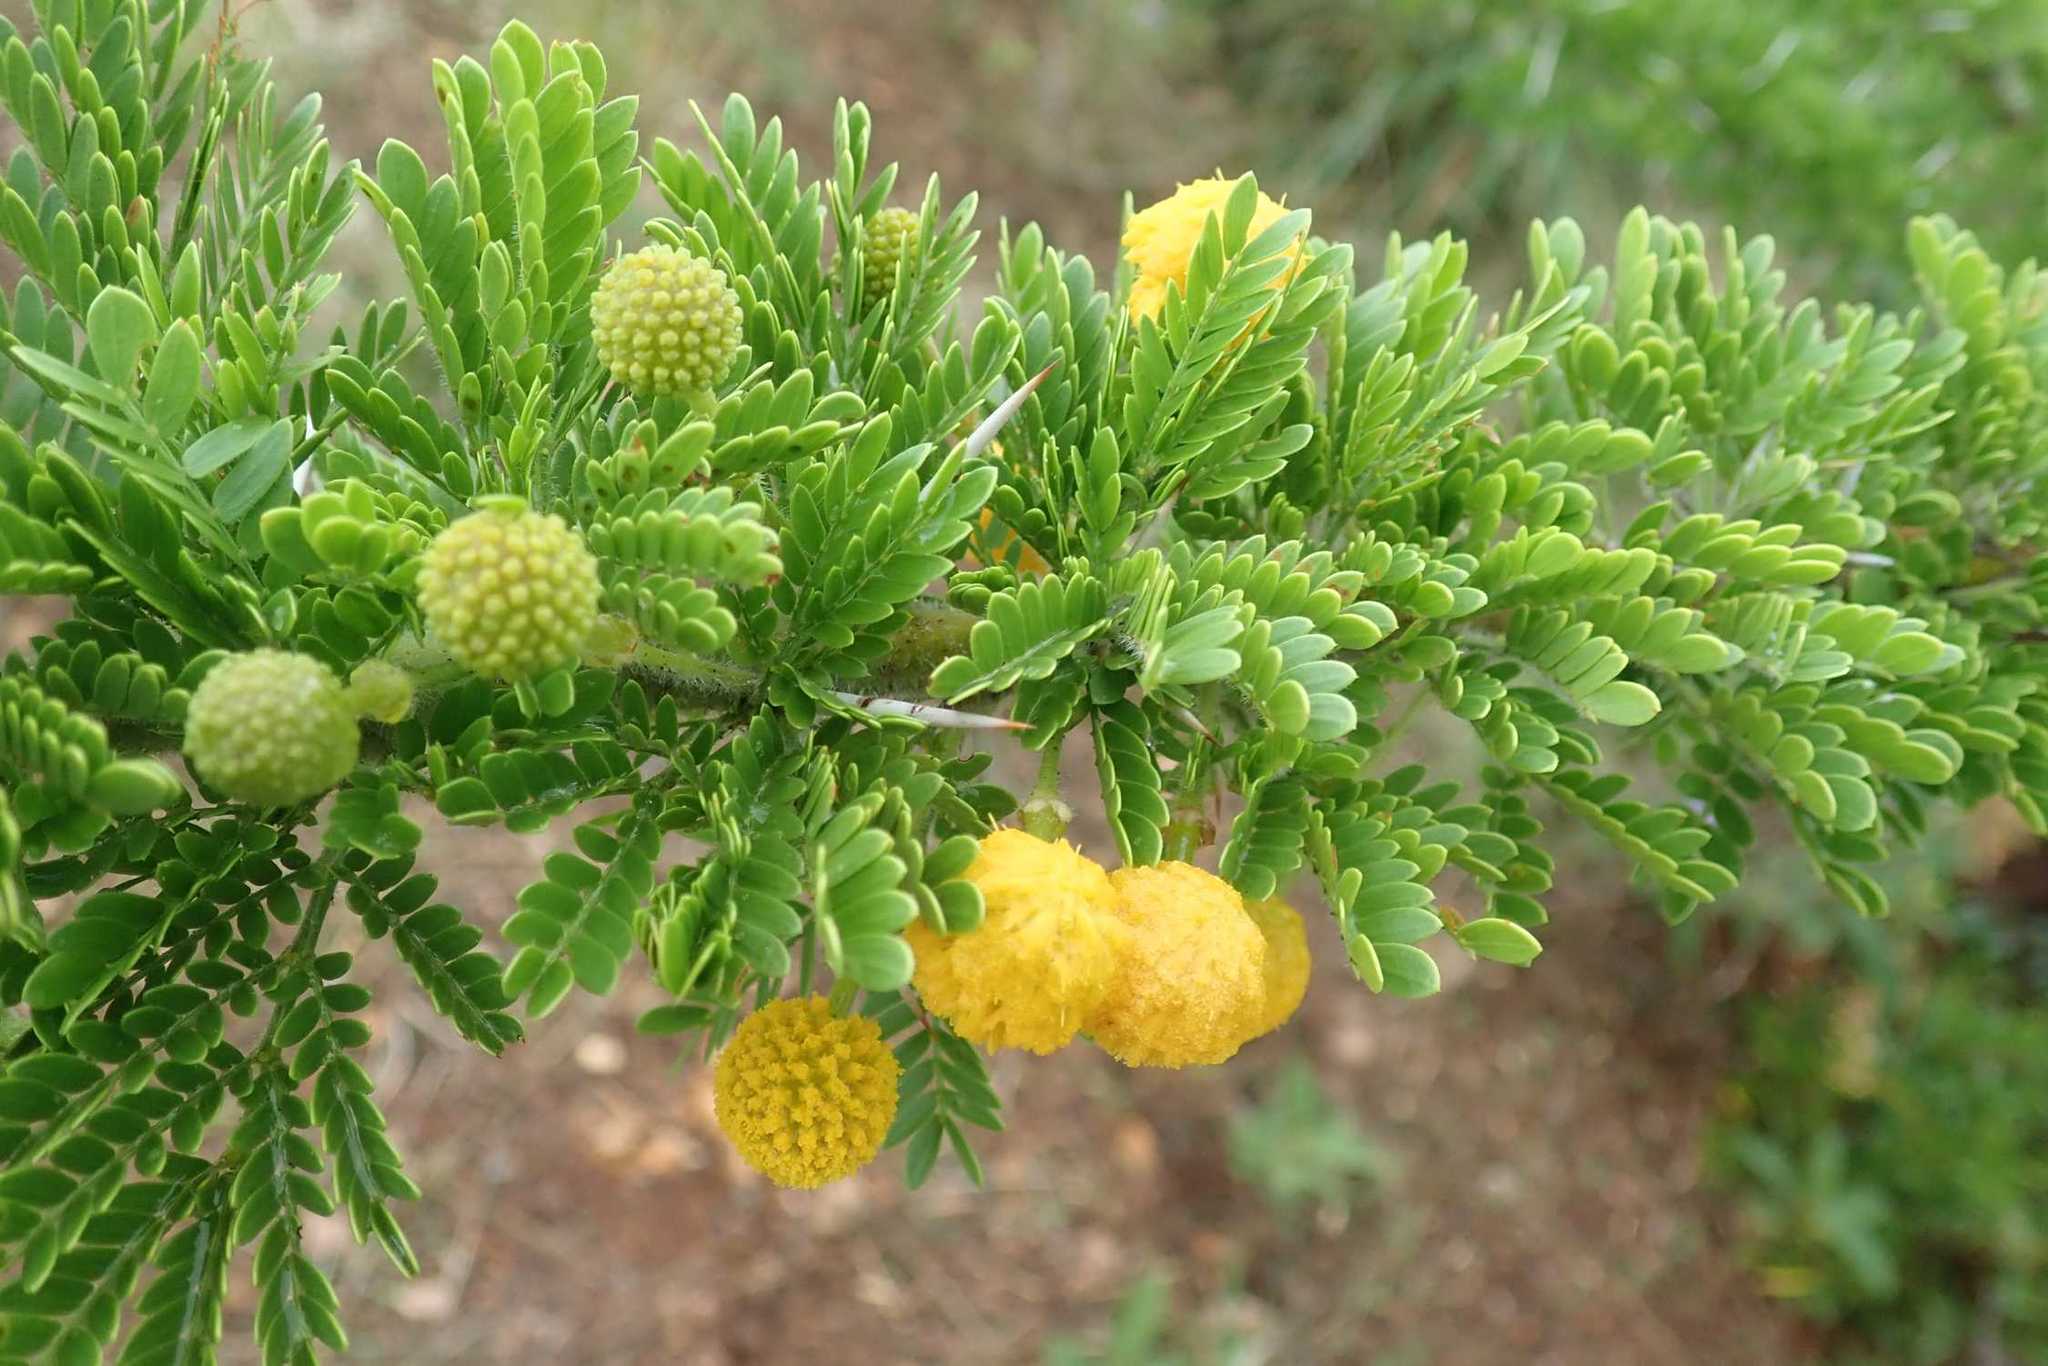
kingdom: Plantae
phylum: Tracheophyta
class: Magnoliopsida
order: Fabales
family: Fabaceae
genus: Vachellia
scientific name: Vachellia permixta
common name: Hairy acacia
